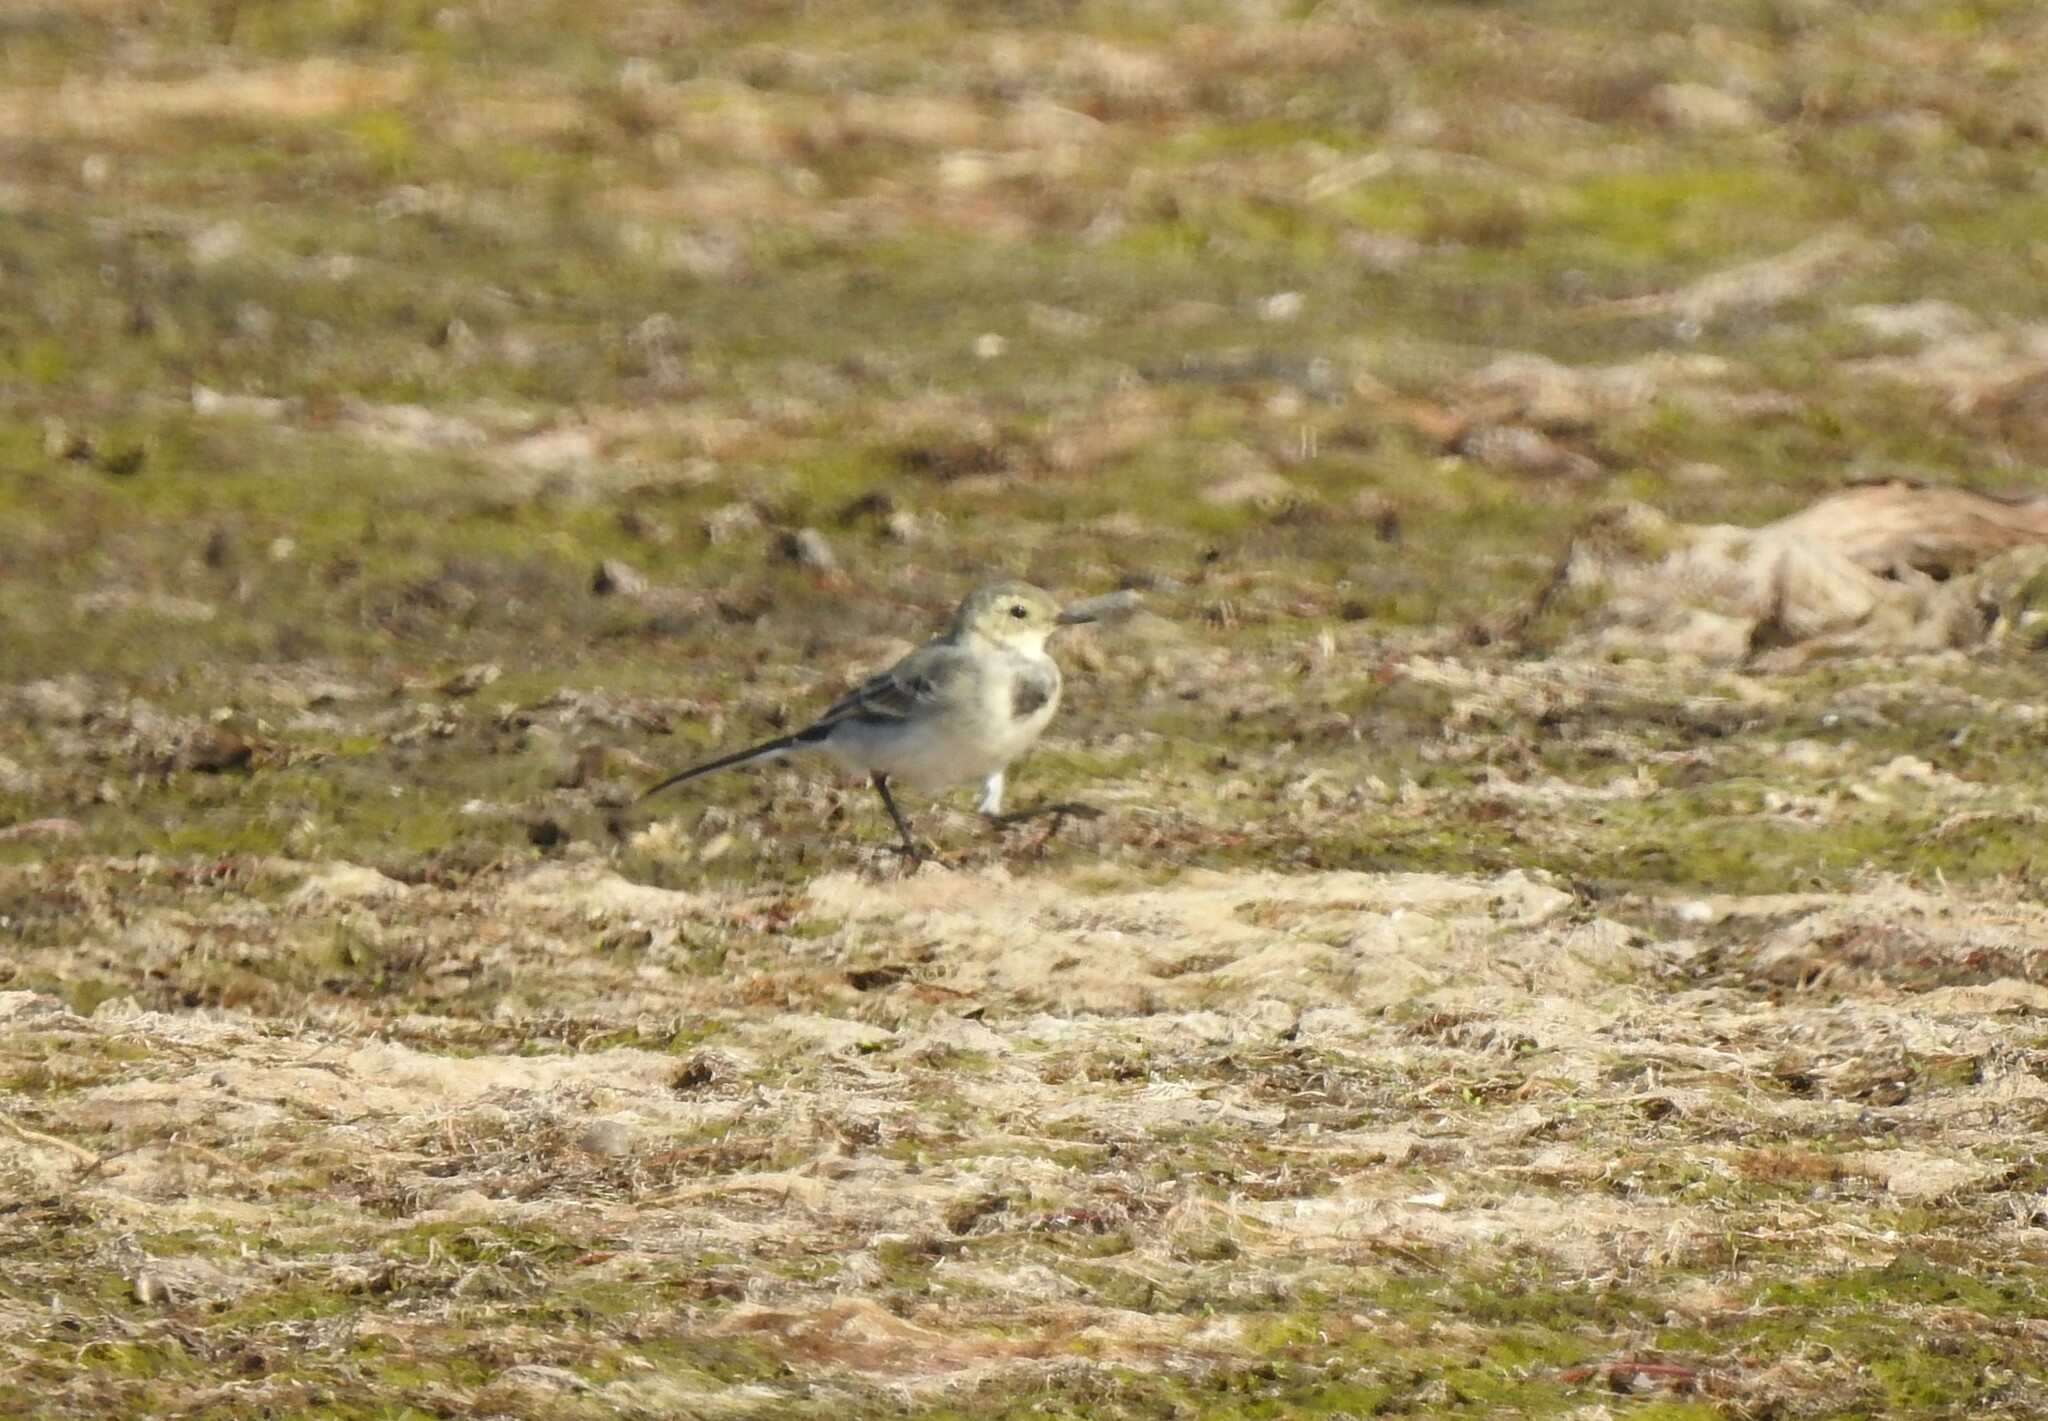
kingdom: Animalia
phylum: Chordata
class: Aves
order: Passeriformes
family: Motacillidae
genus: Motacilla
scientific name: Motacilla alba
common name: White wagtail
